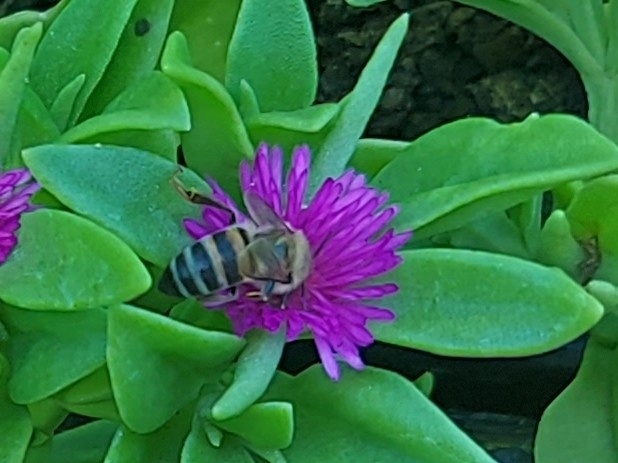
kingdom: Animalia
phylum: Arthropoda
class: Insecta
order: Hymenoptera
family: Apidae
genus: Apis
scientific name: Apis mellifera
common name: Honey bee
